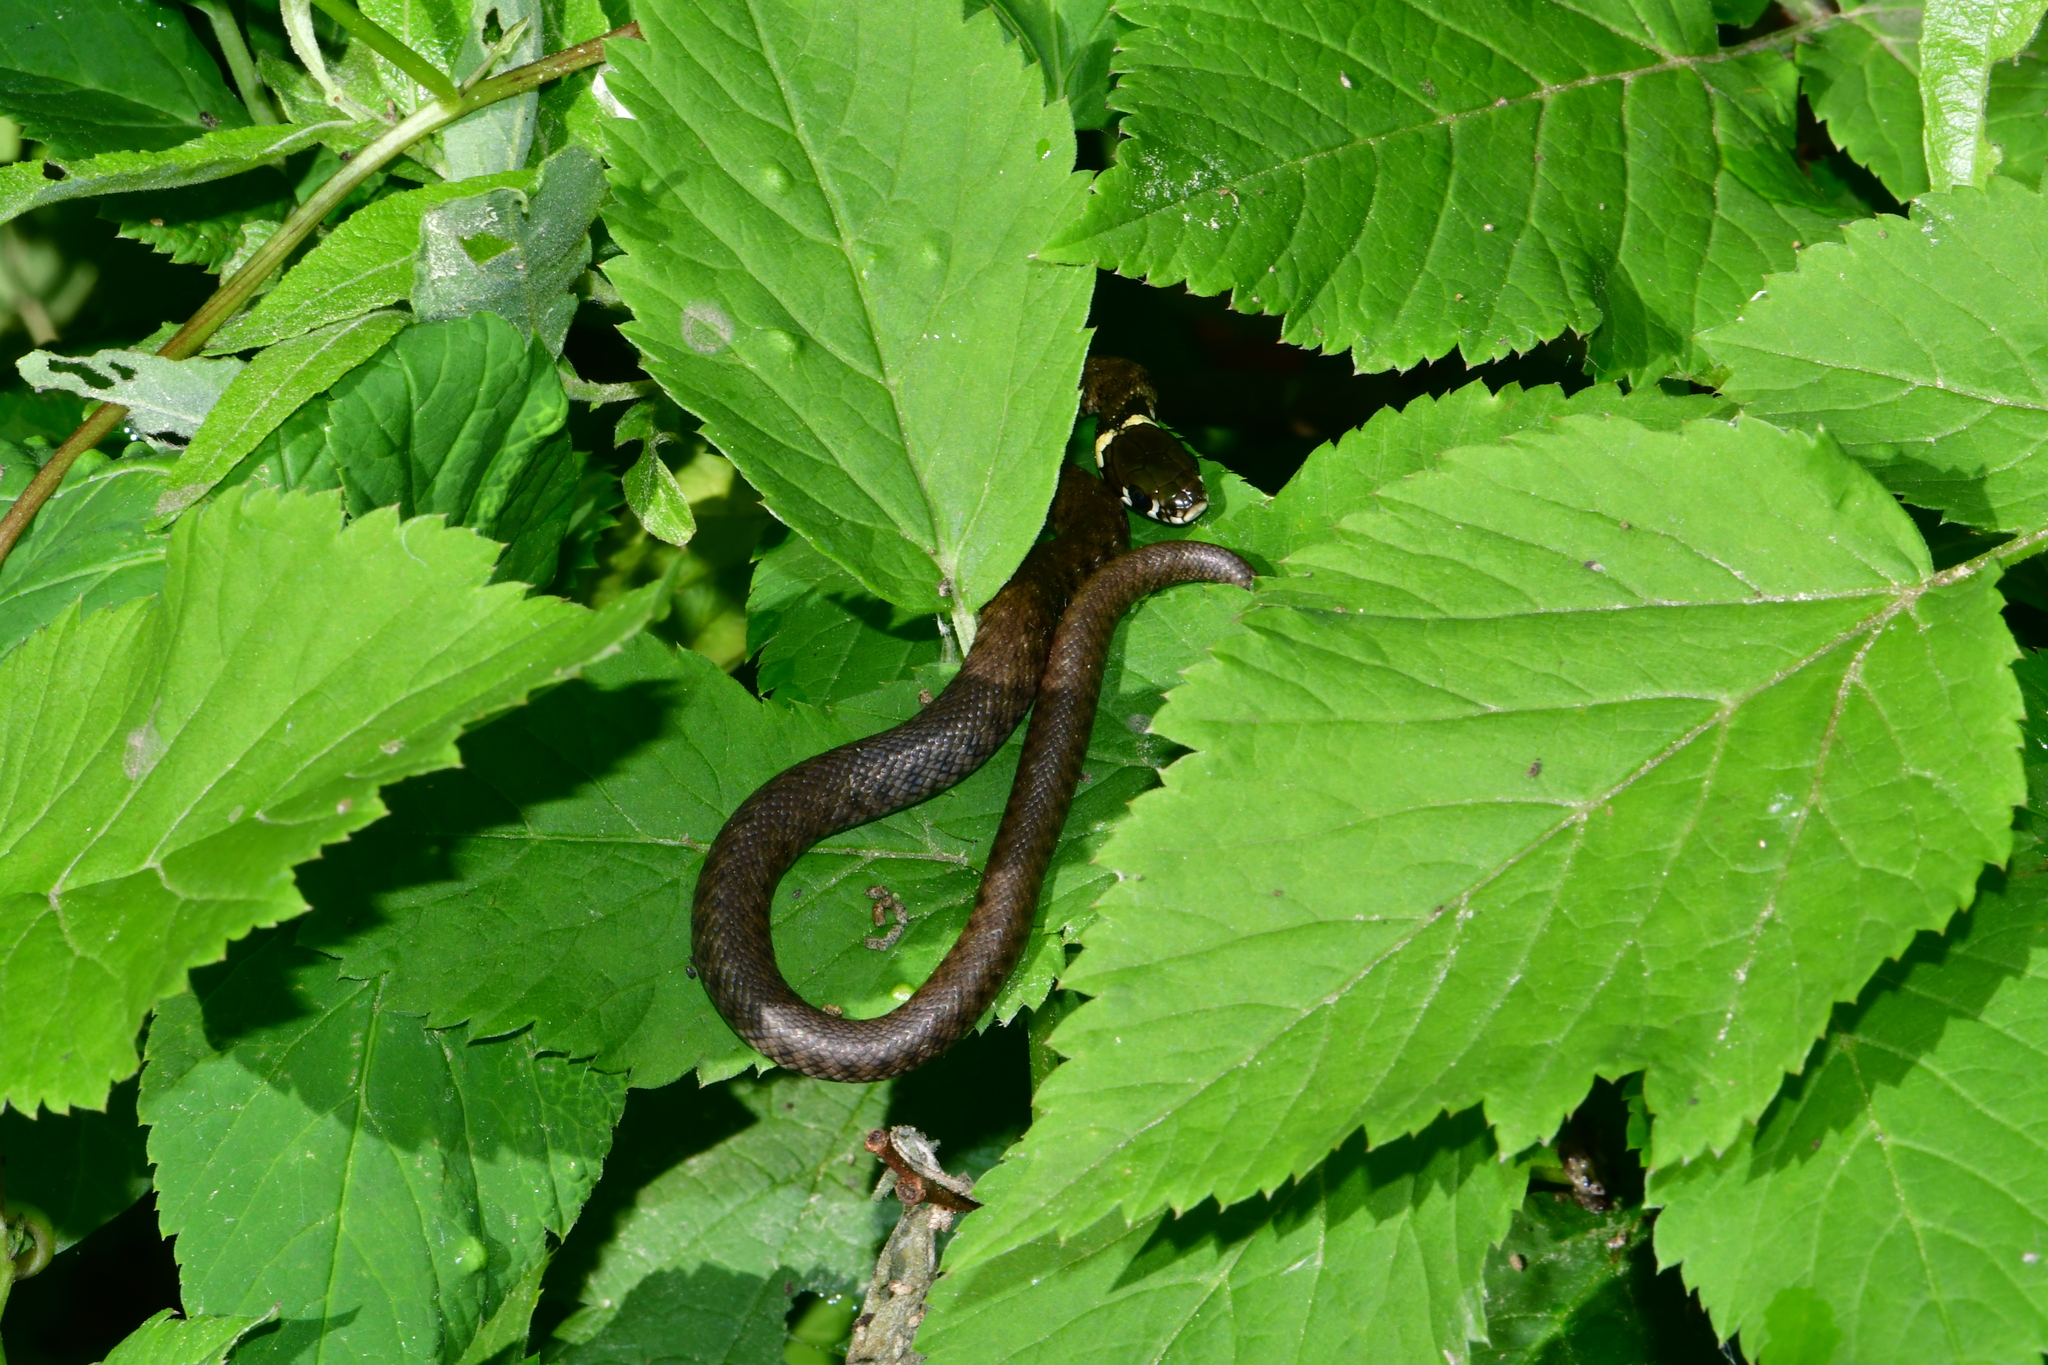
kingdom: Animalia
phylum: Chordata
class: Squamata
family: Colubridae
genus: Natrix
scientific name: Natrix natrix
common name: Grass snake
